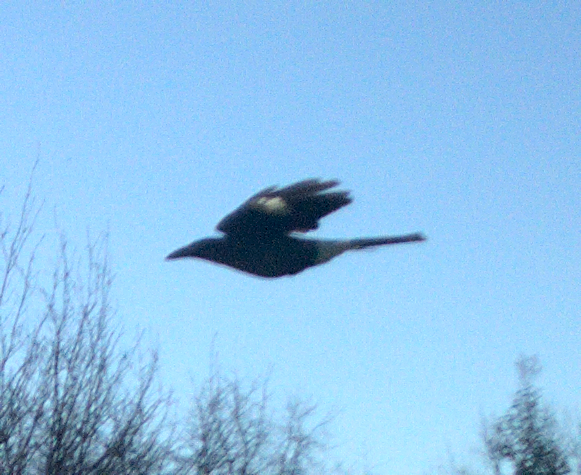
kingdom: Animalia
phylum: Chordata
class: Aves
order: Passeriformes
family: Cracticidae
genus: Strepera
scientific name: Strepera graculina
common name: Pied currawong
